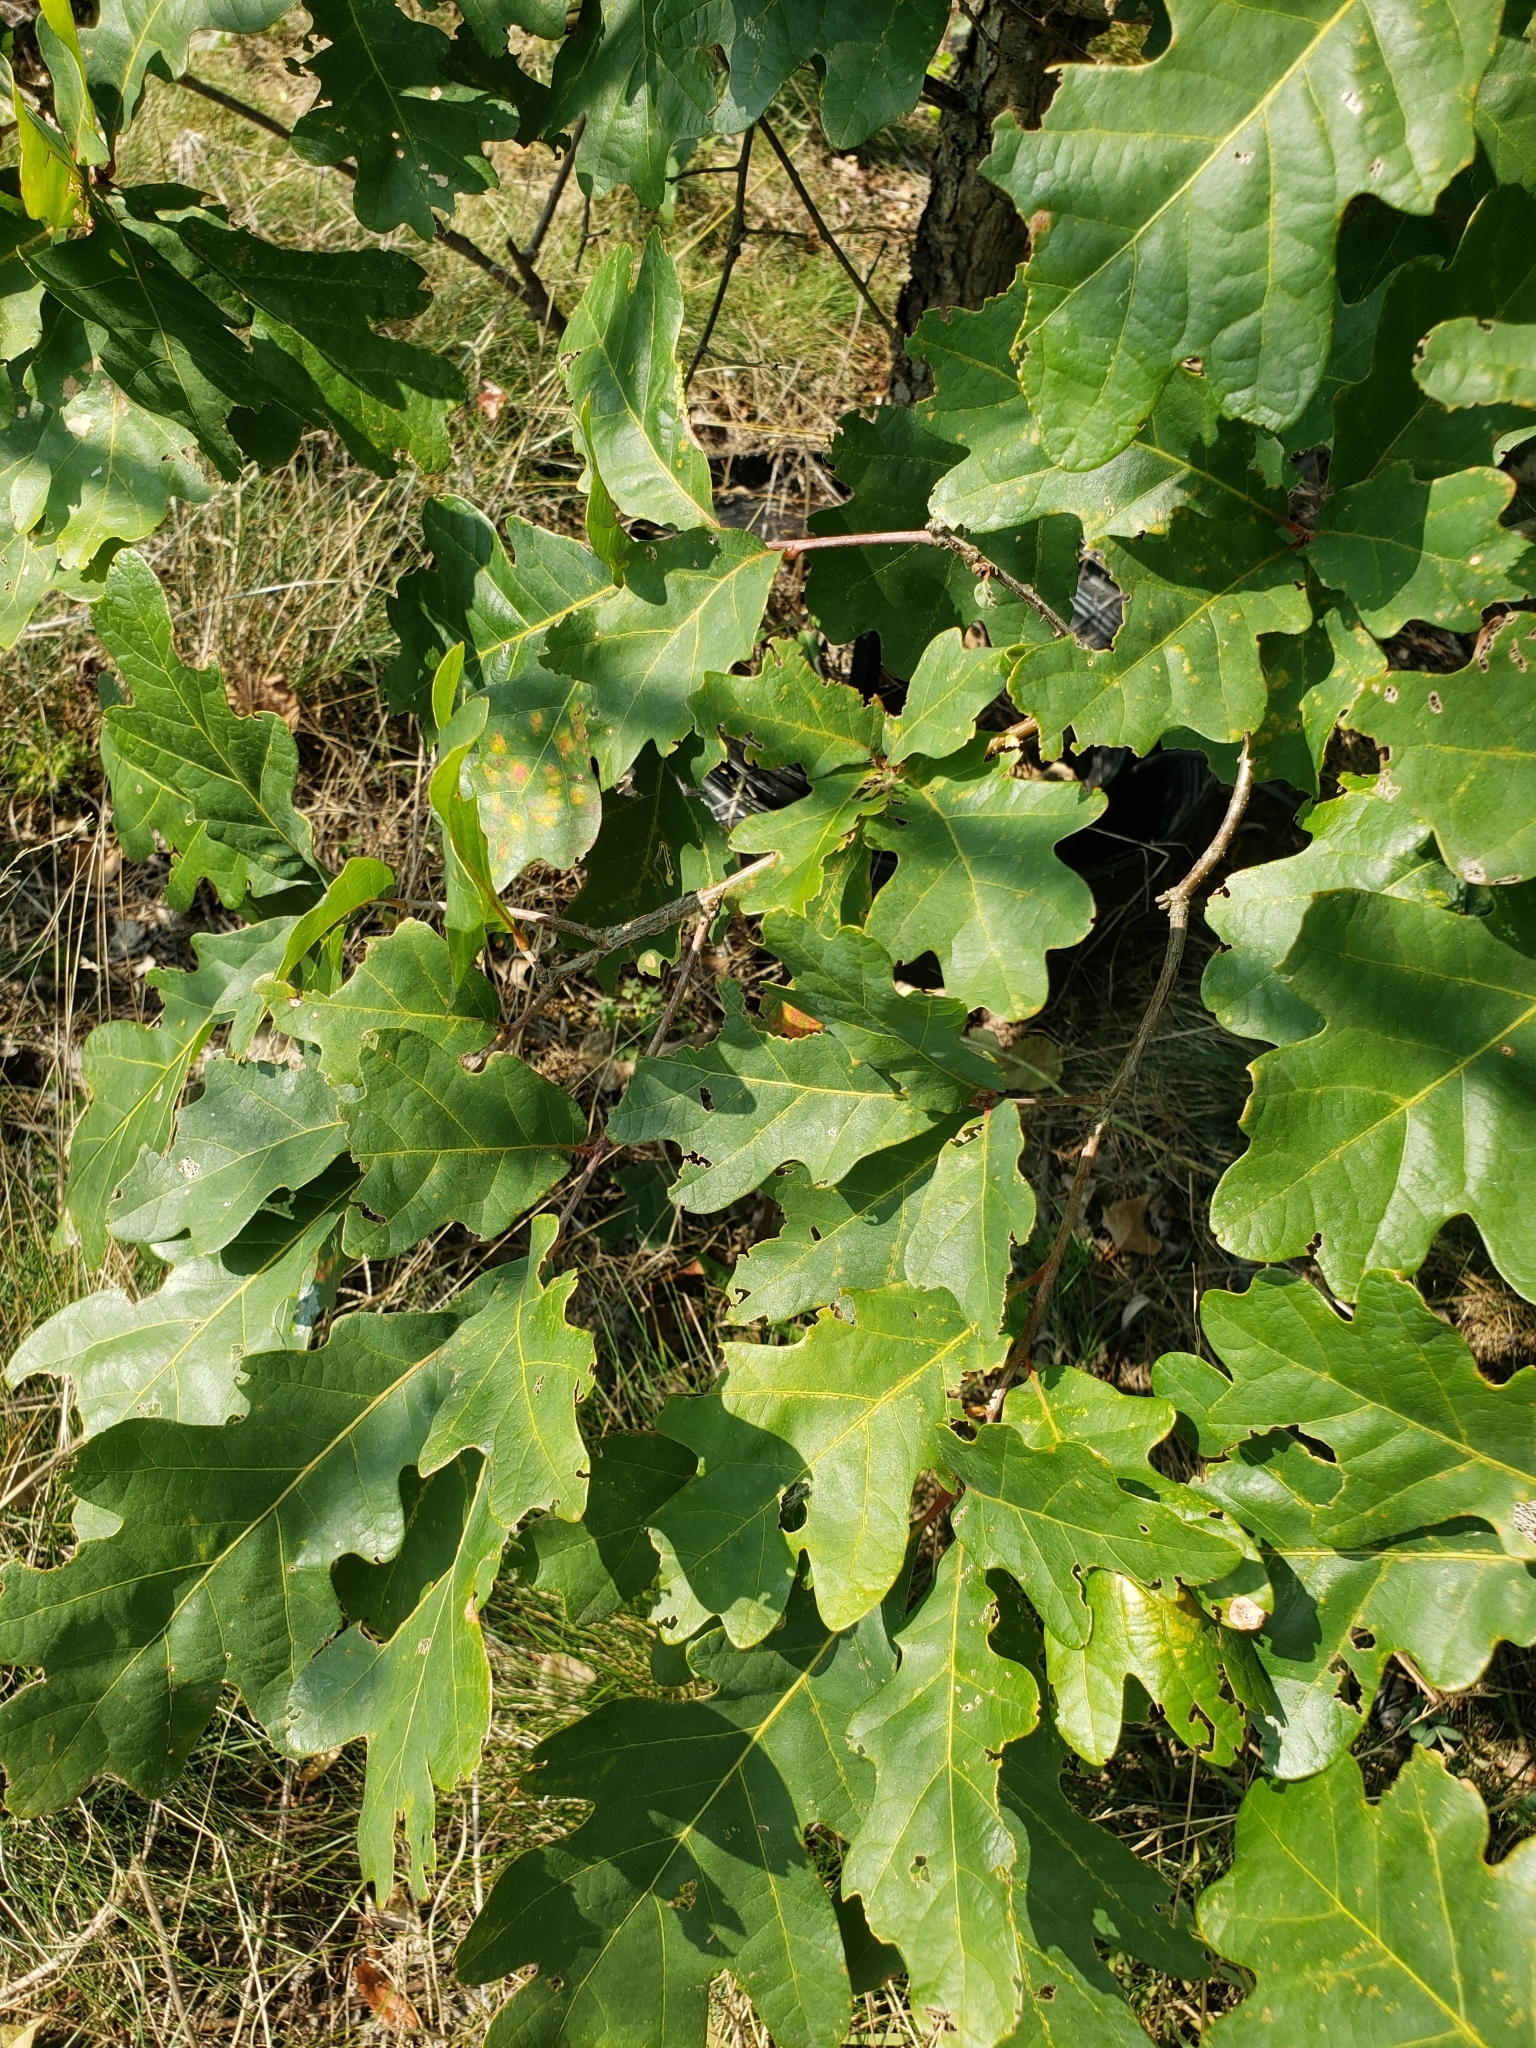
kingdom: Animalia
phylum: Arthropoda
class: Insecta
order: Hymenoptera
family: Cynipidae
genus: Callirhytis
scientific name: Callirhytis
